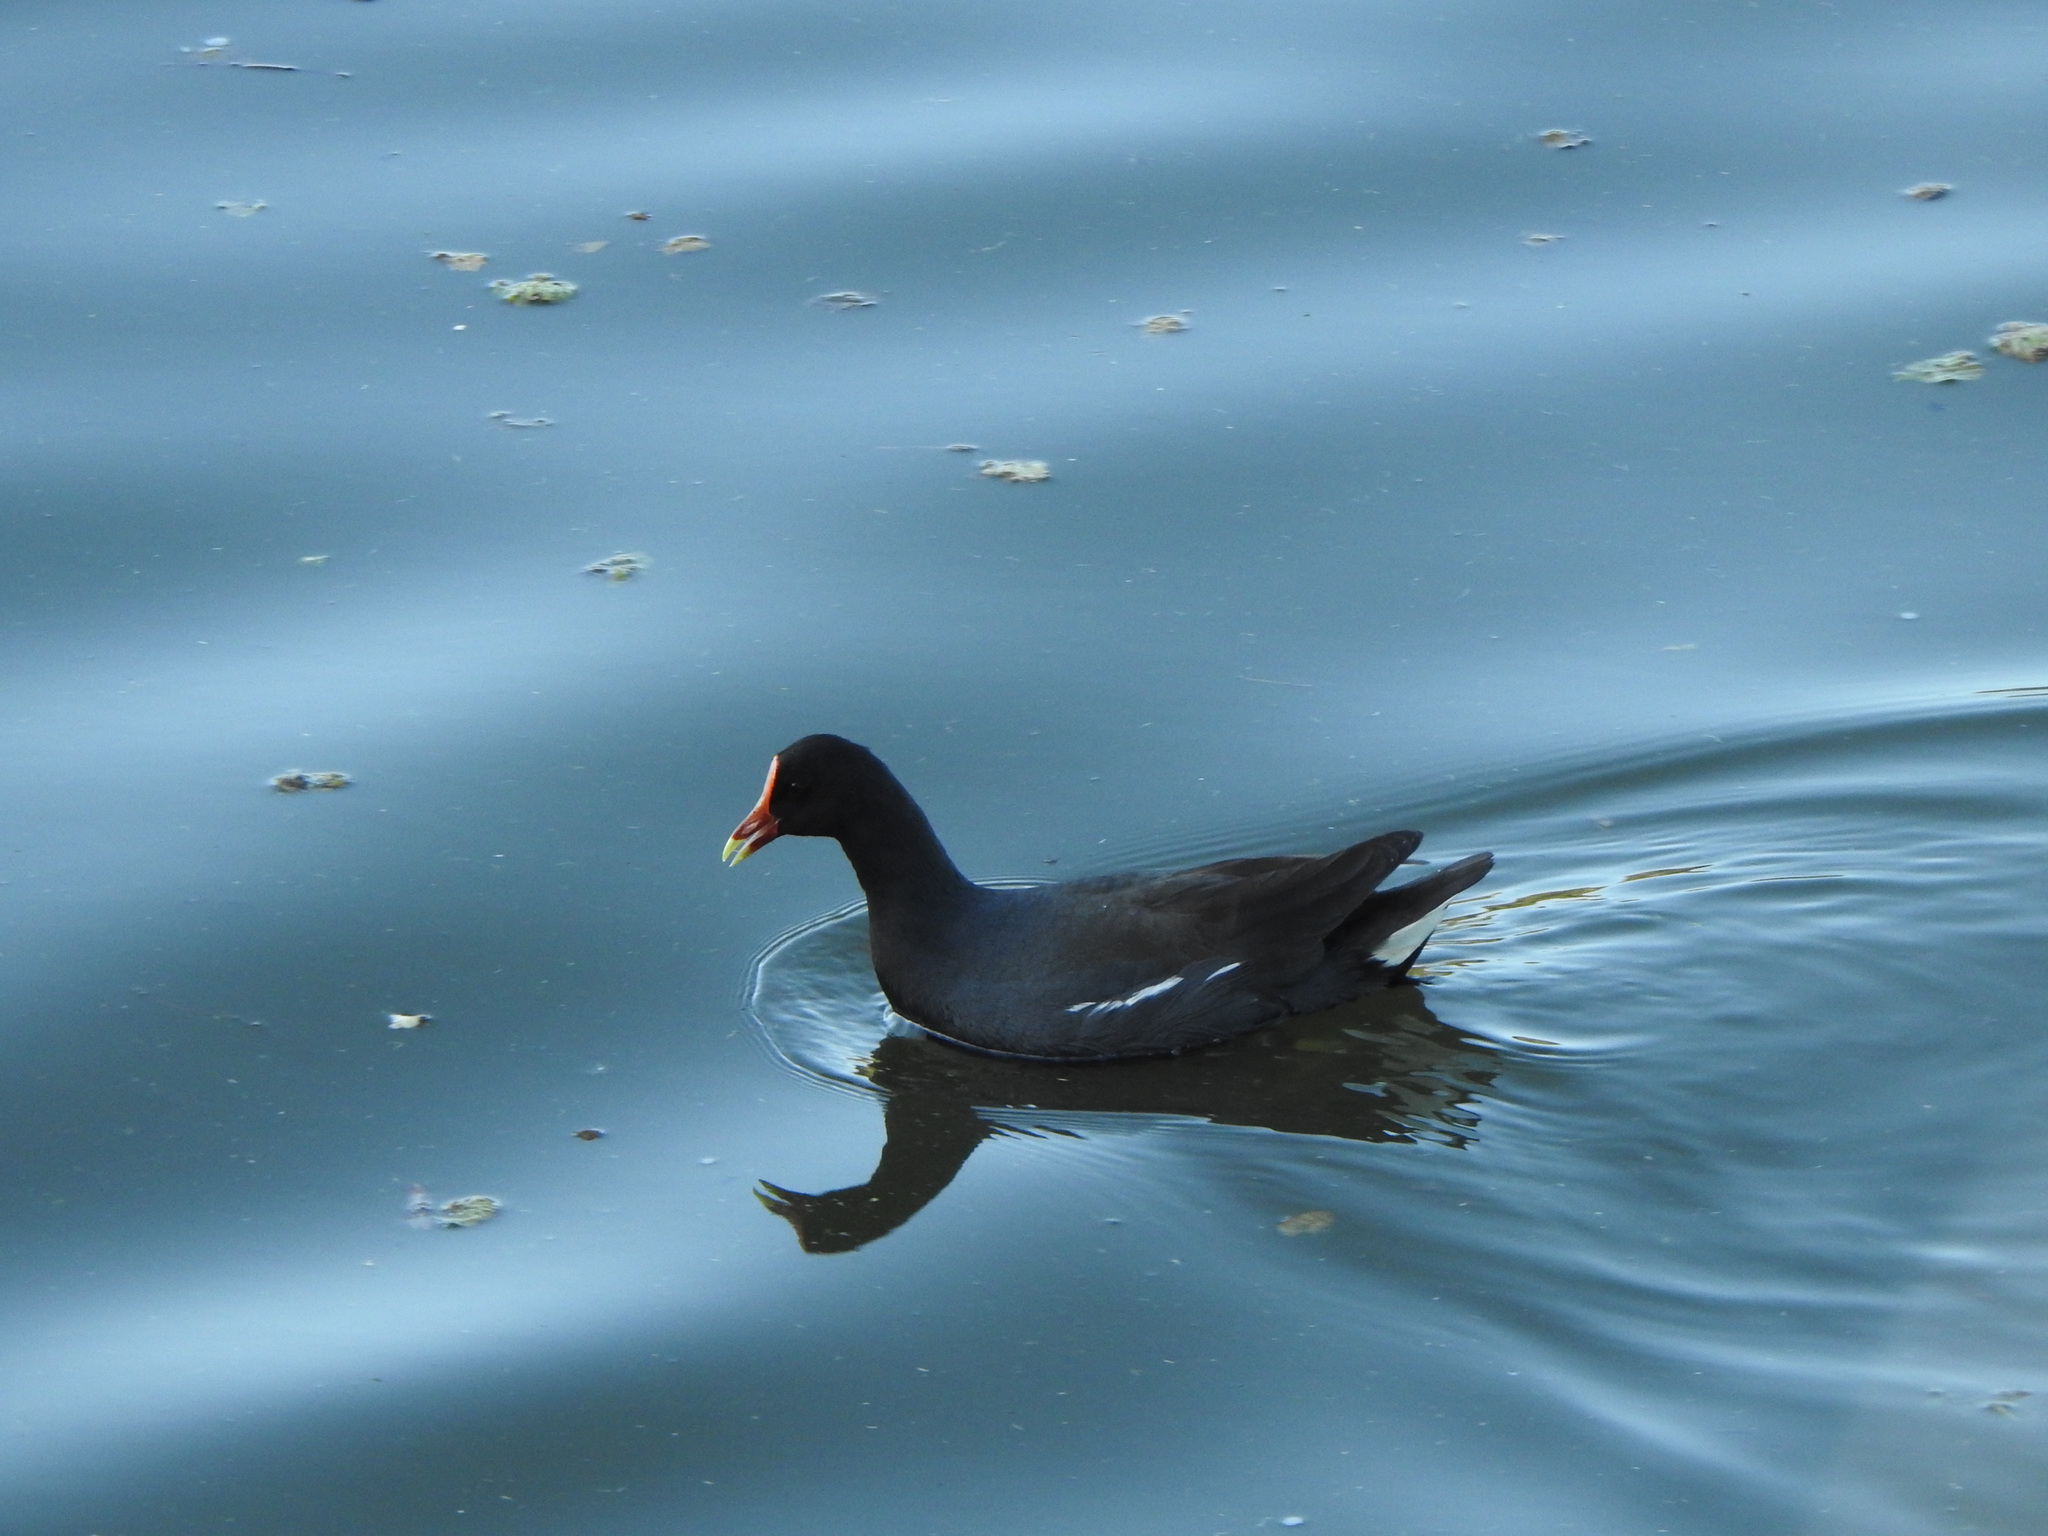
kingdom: Animalia
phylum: Chordata
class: Aves
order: Gruiformes
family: Rallidae
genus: Gallinula
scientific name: Gallinula chloropus
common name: Common moorhen
